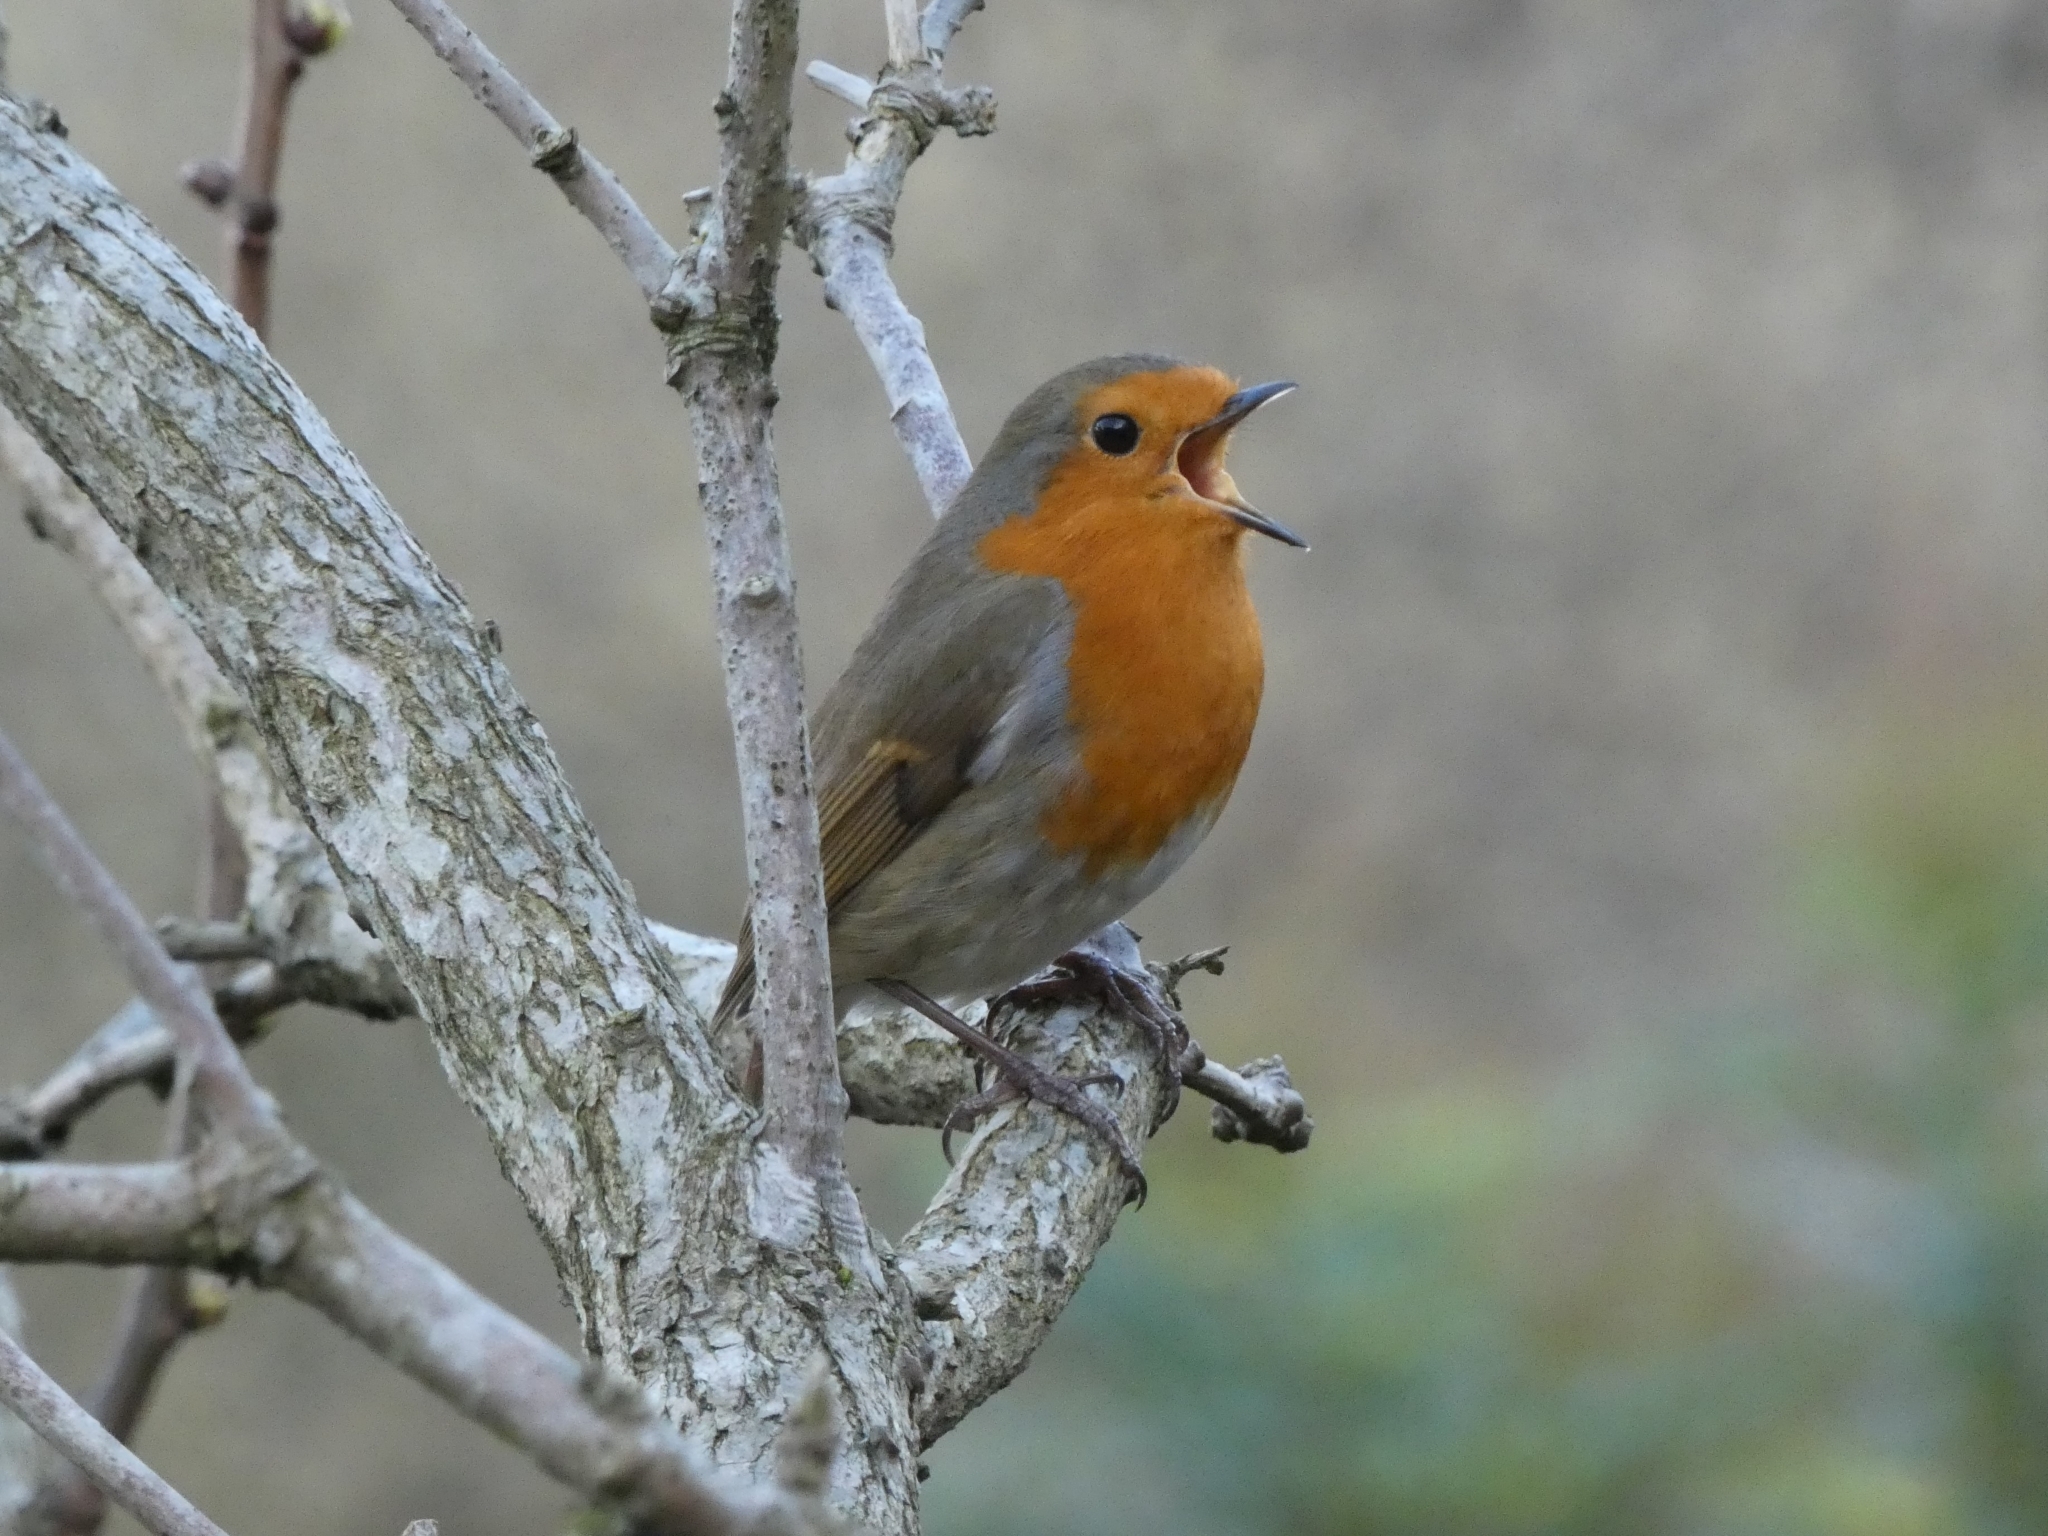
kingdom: Animalia
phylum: Chordata
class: Aves
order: Passeriformes
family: Muscicapidae
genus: Erithacus
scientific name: Erithacus rubecula
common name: European robin
